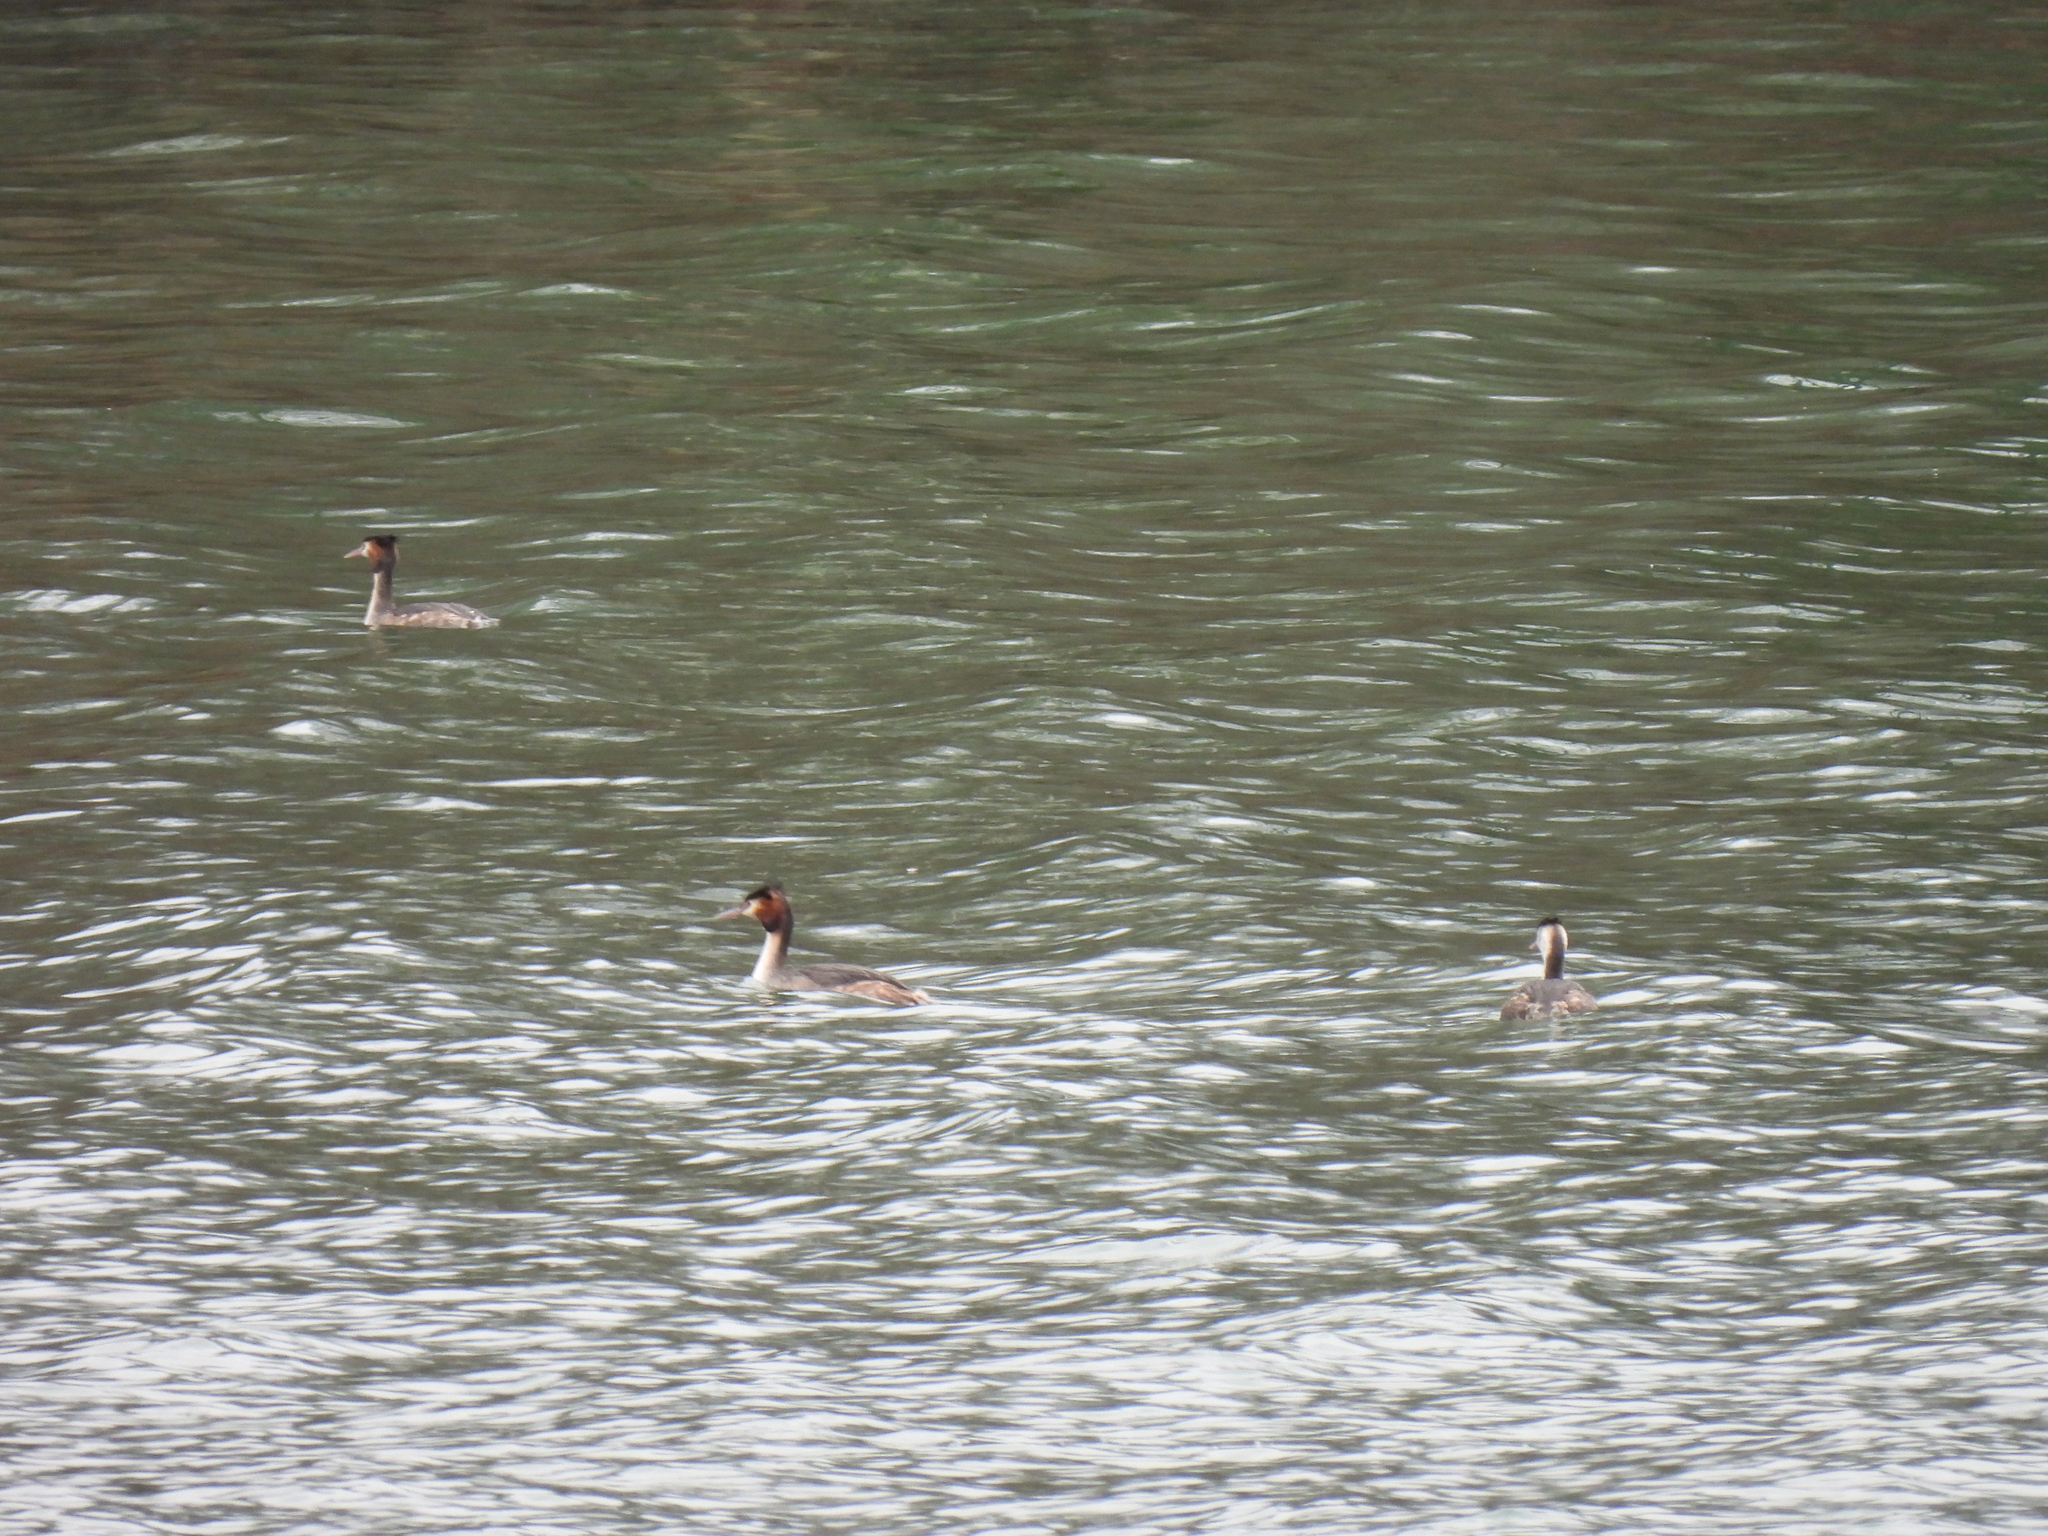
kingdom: Animalia
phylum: Chordata
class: Aves
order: Podicipediformes
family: Podicipedidae
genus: Podiceps
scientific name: Podiceps cristatus
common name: Great crested grebe
